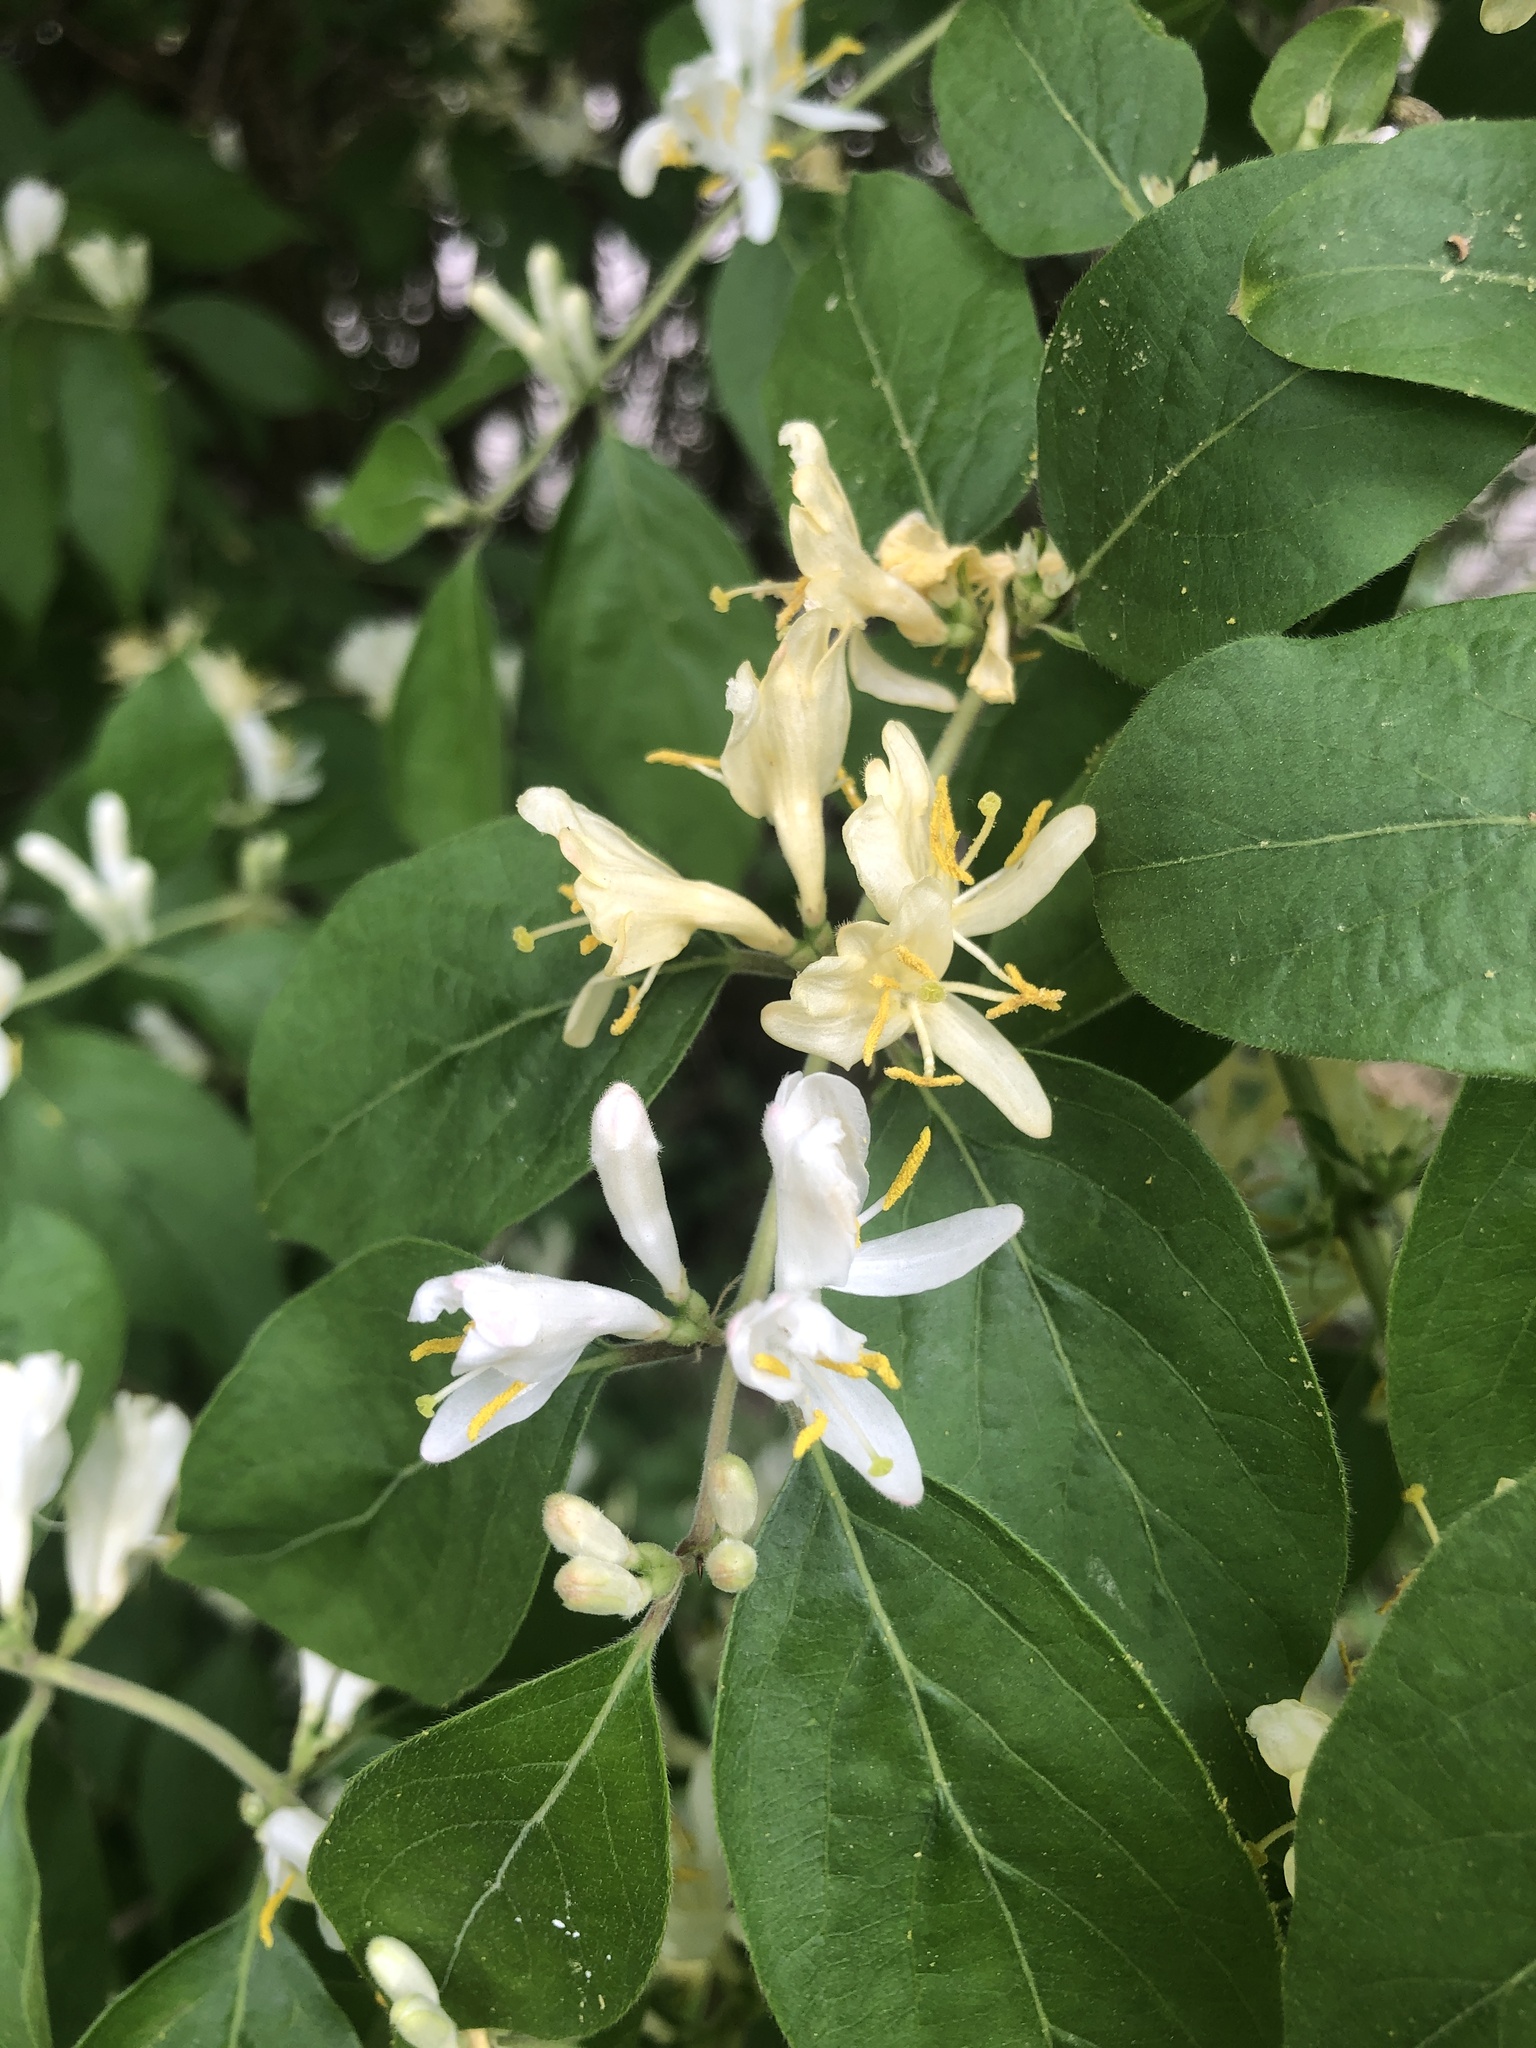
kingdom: Plantae
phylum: Tracheophyta
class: Magnoliopsida
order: Dipsacales
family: Caprifoliaceae
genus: Lonicera
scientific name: Lonicera maackii
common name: Amur honeysuckle
